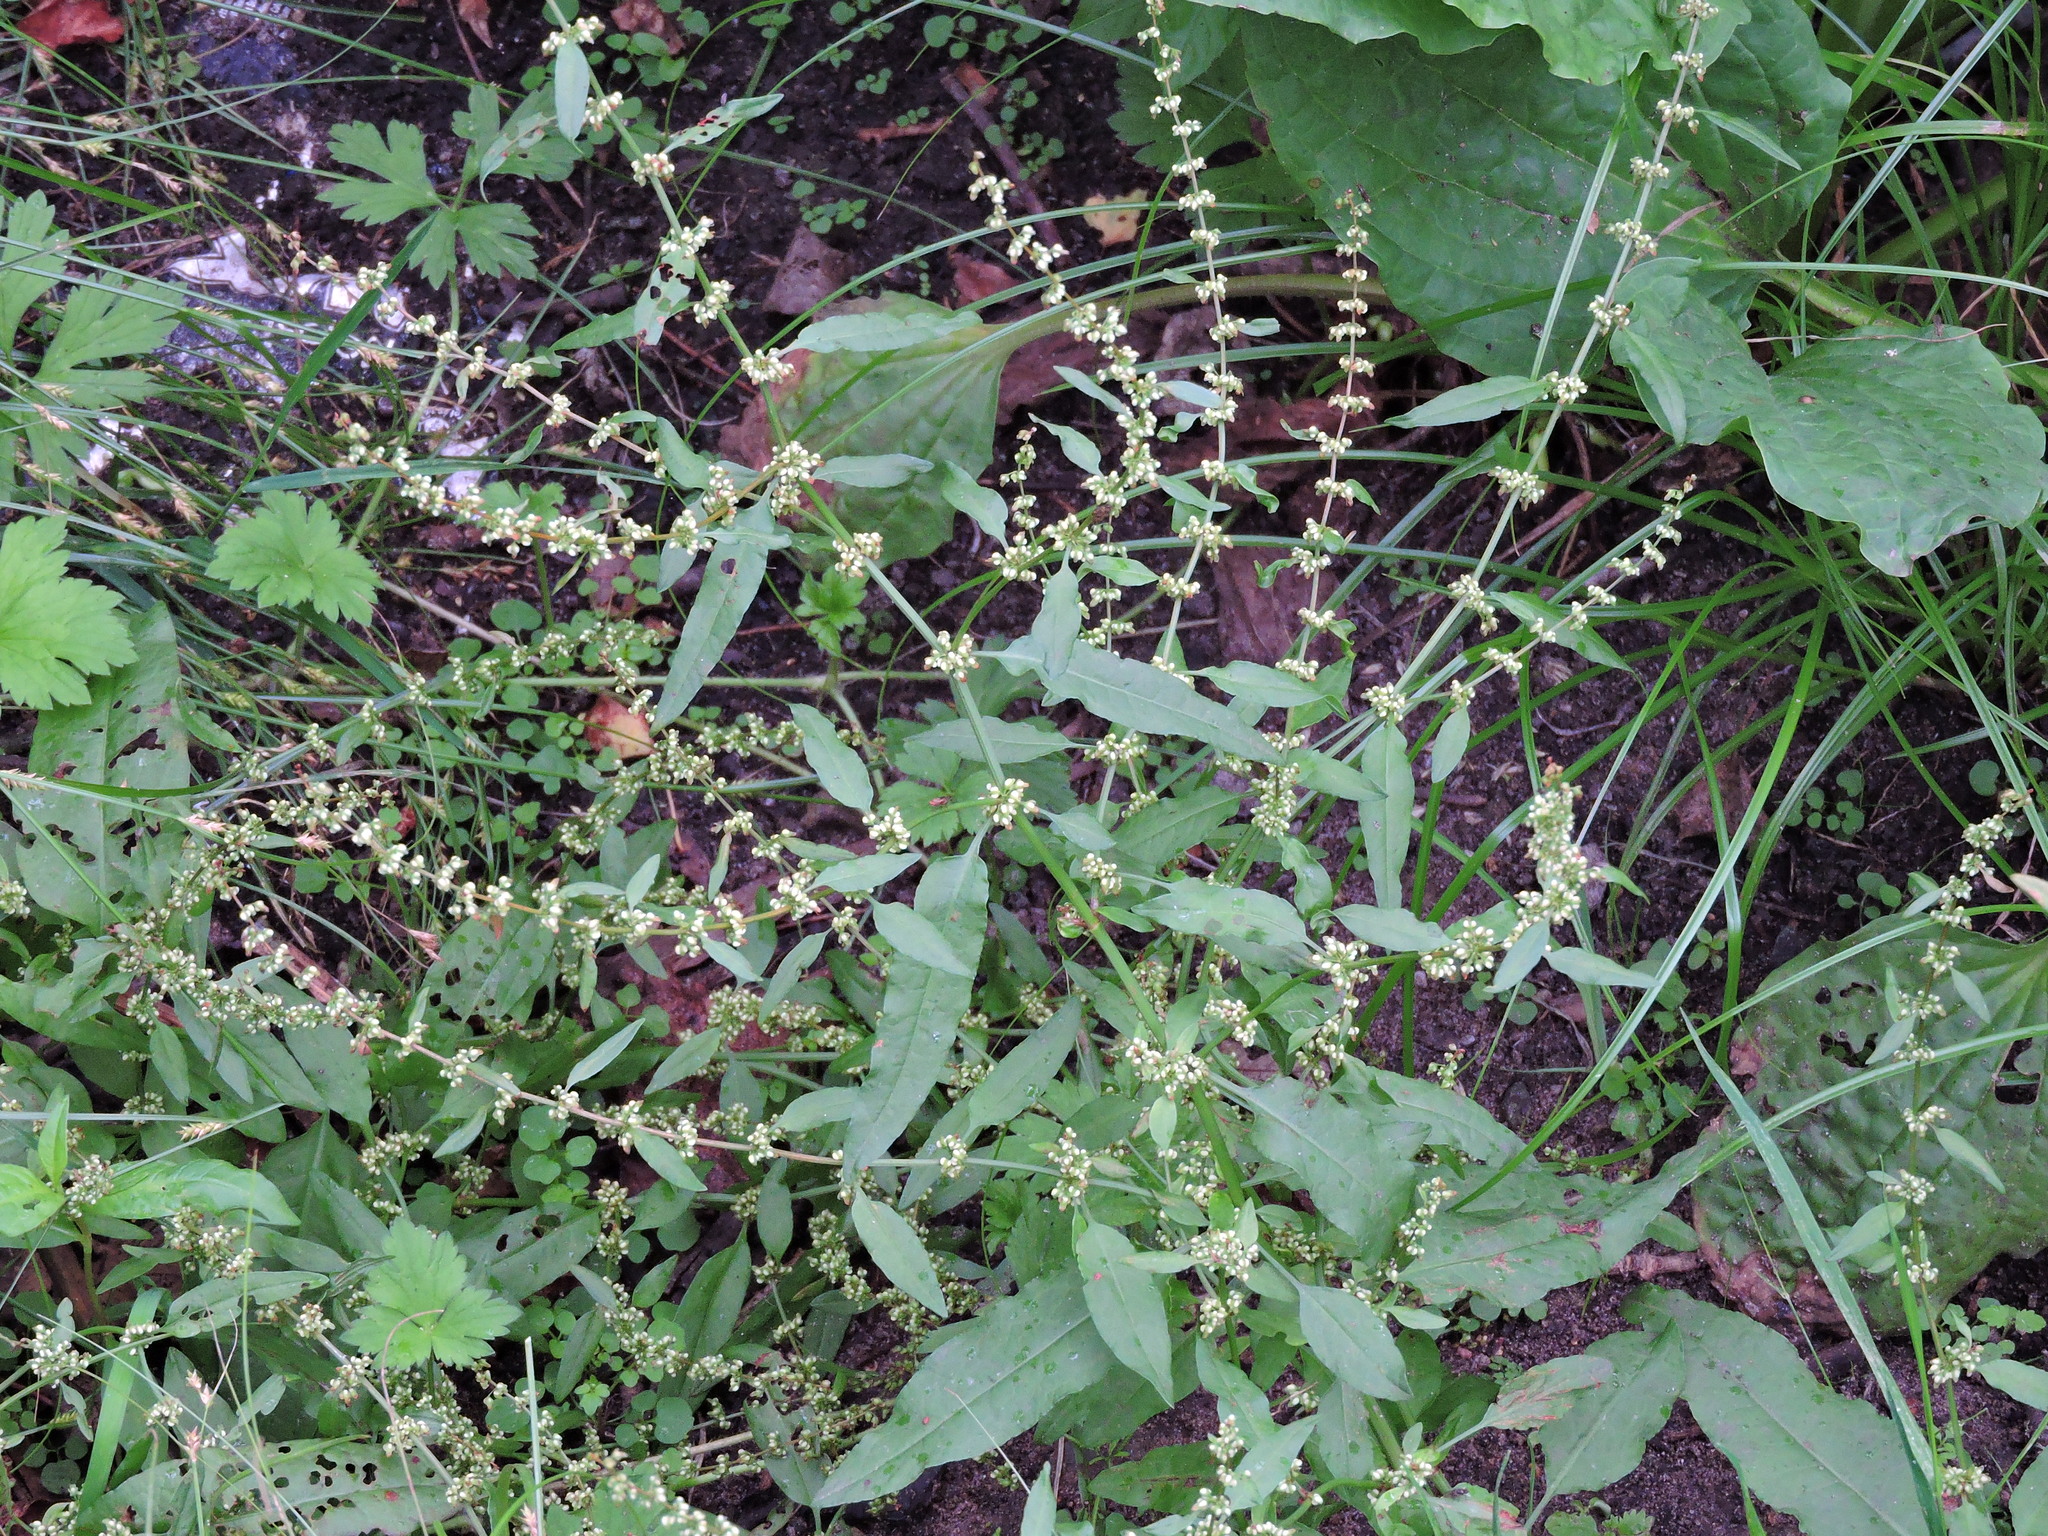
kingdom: Plantae
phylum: Tracheophyta
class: Magnoliopsida
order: Caryophyllales
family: Polygonaceae
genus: Rumex
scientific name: Rumex conglomeratus
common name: Clustered dock
